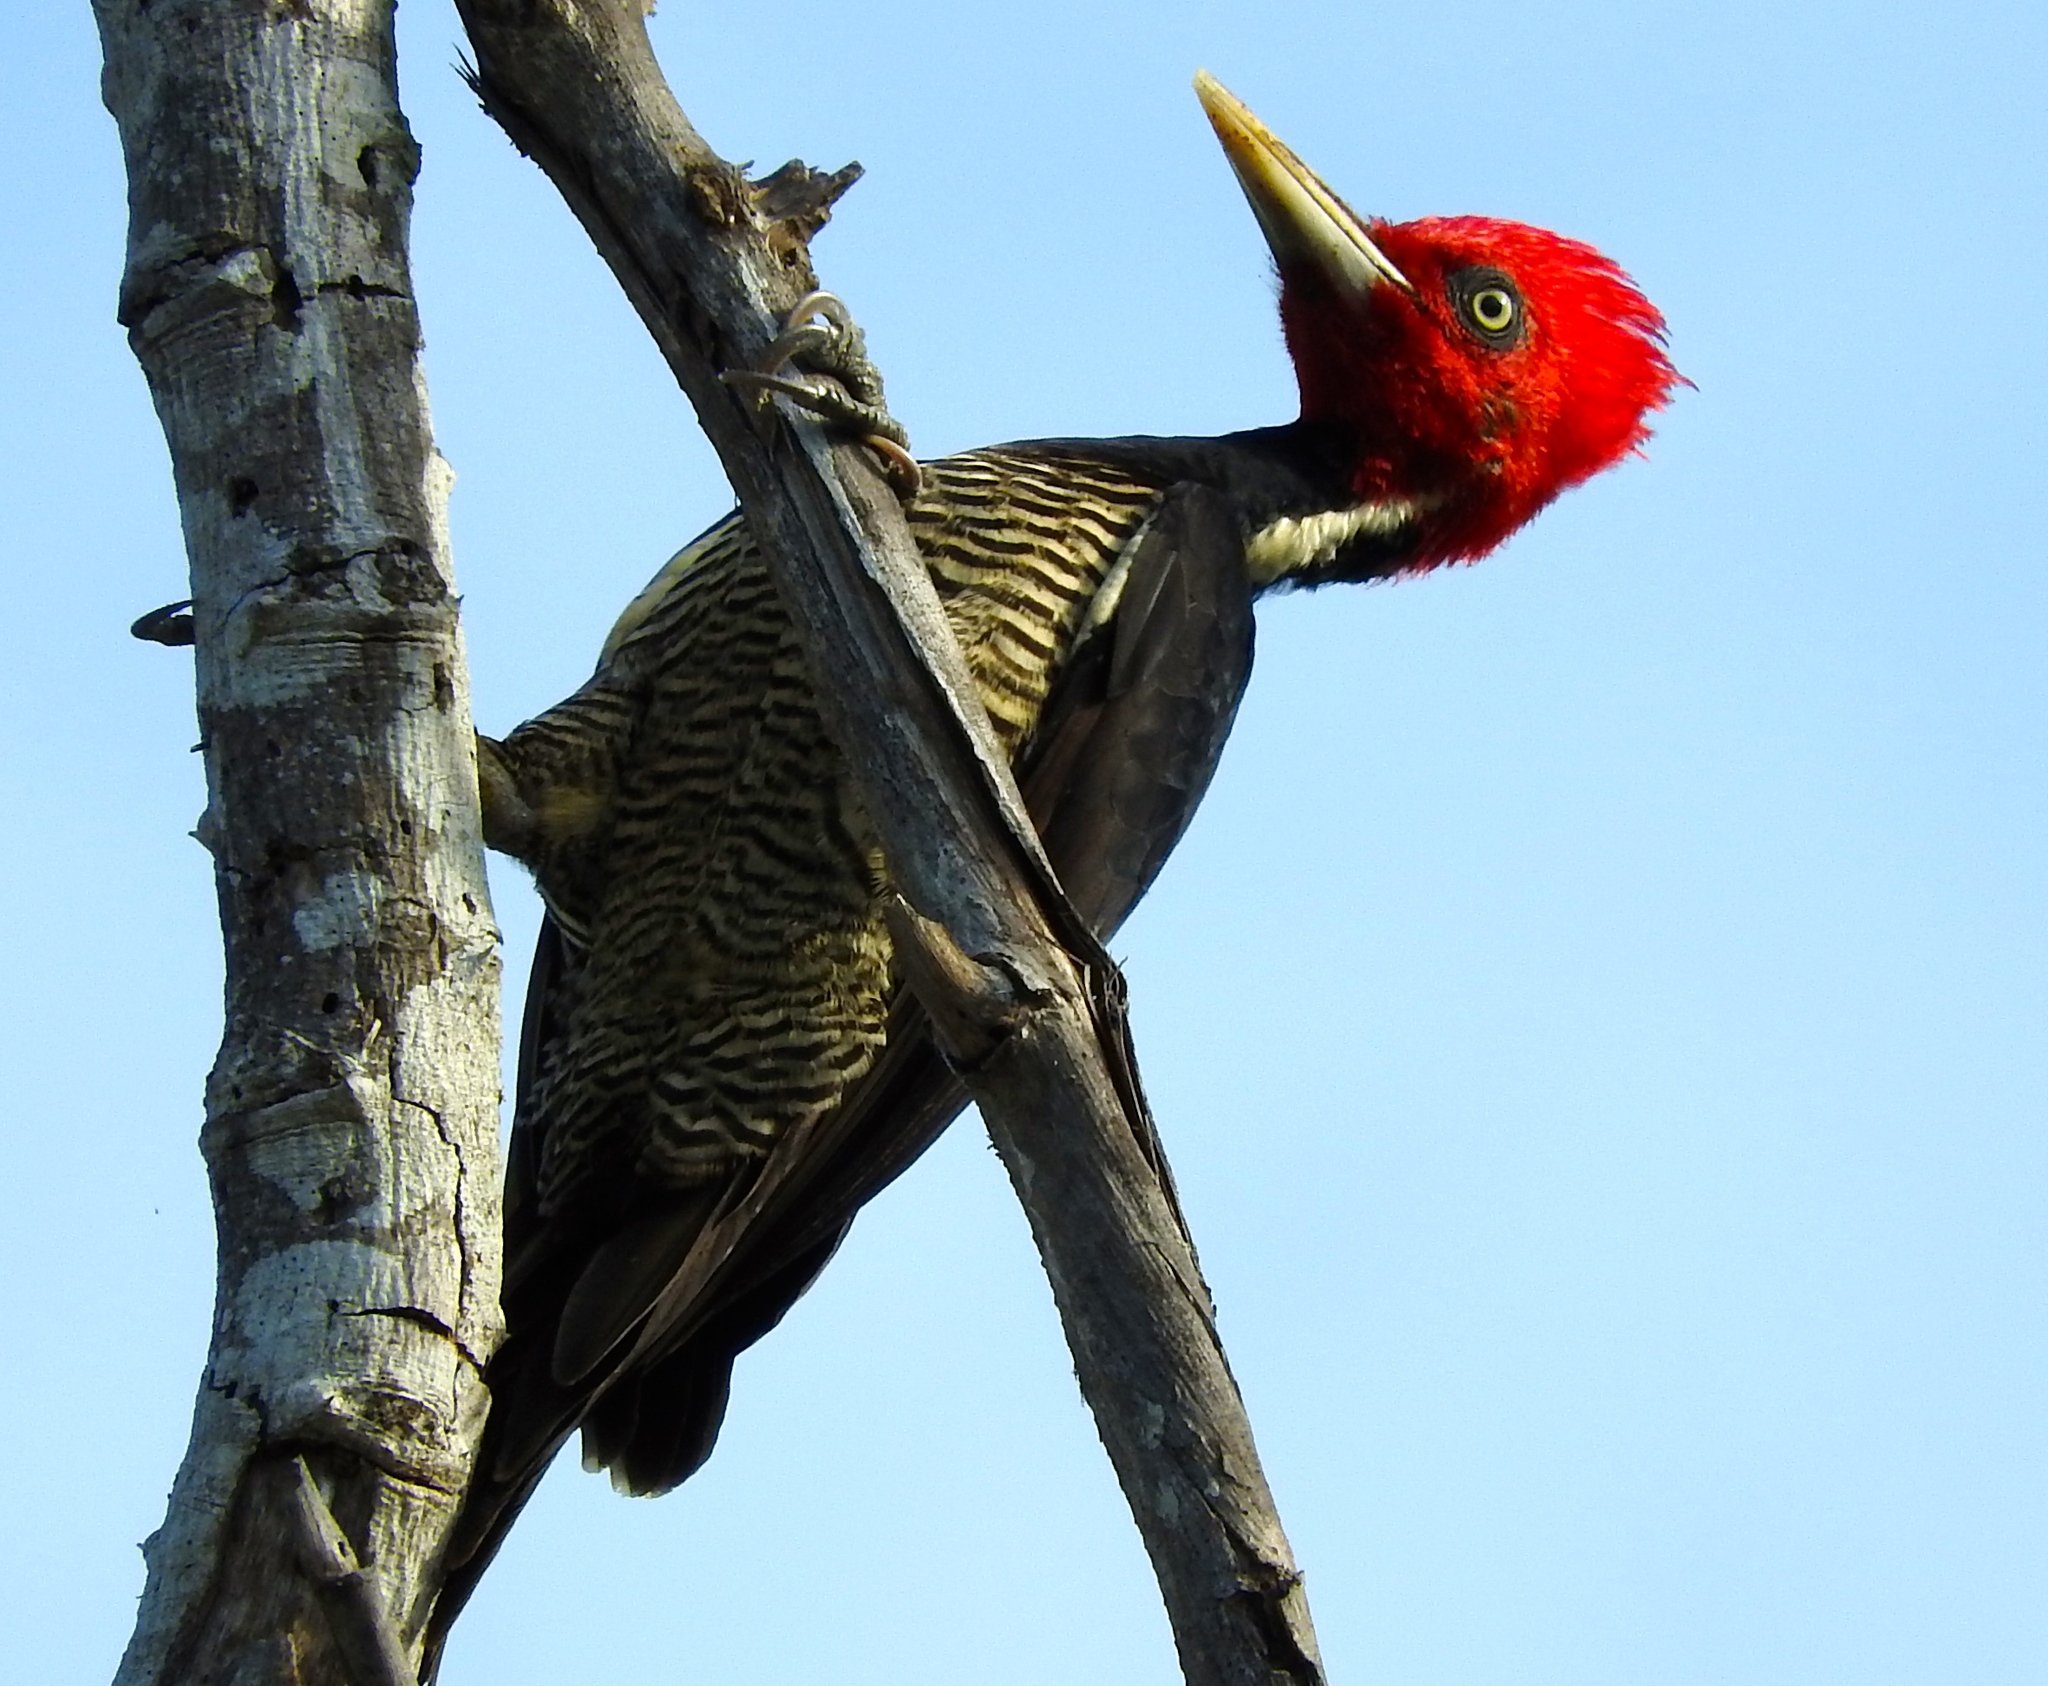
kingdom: Animalia
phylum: Chordata
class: Aves
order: Piciformes
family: Picidae
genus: Campephilus
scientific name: Campephilus guatemalensis
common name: Pale-billed woodpecker
